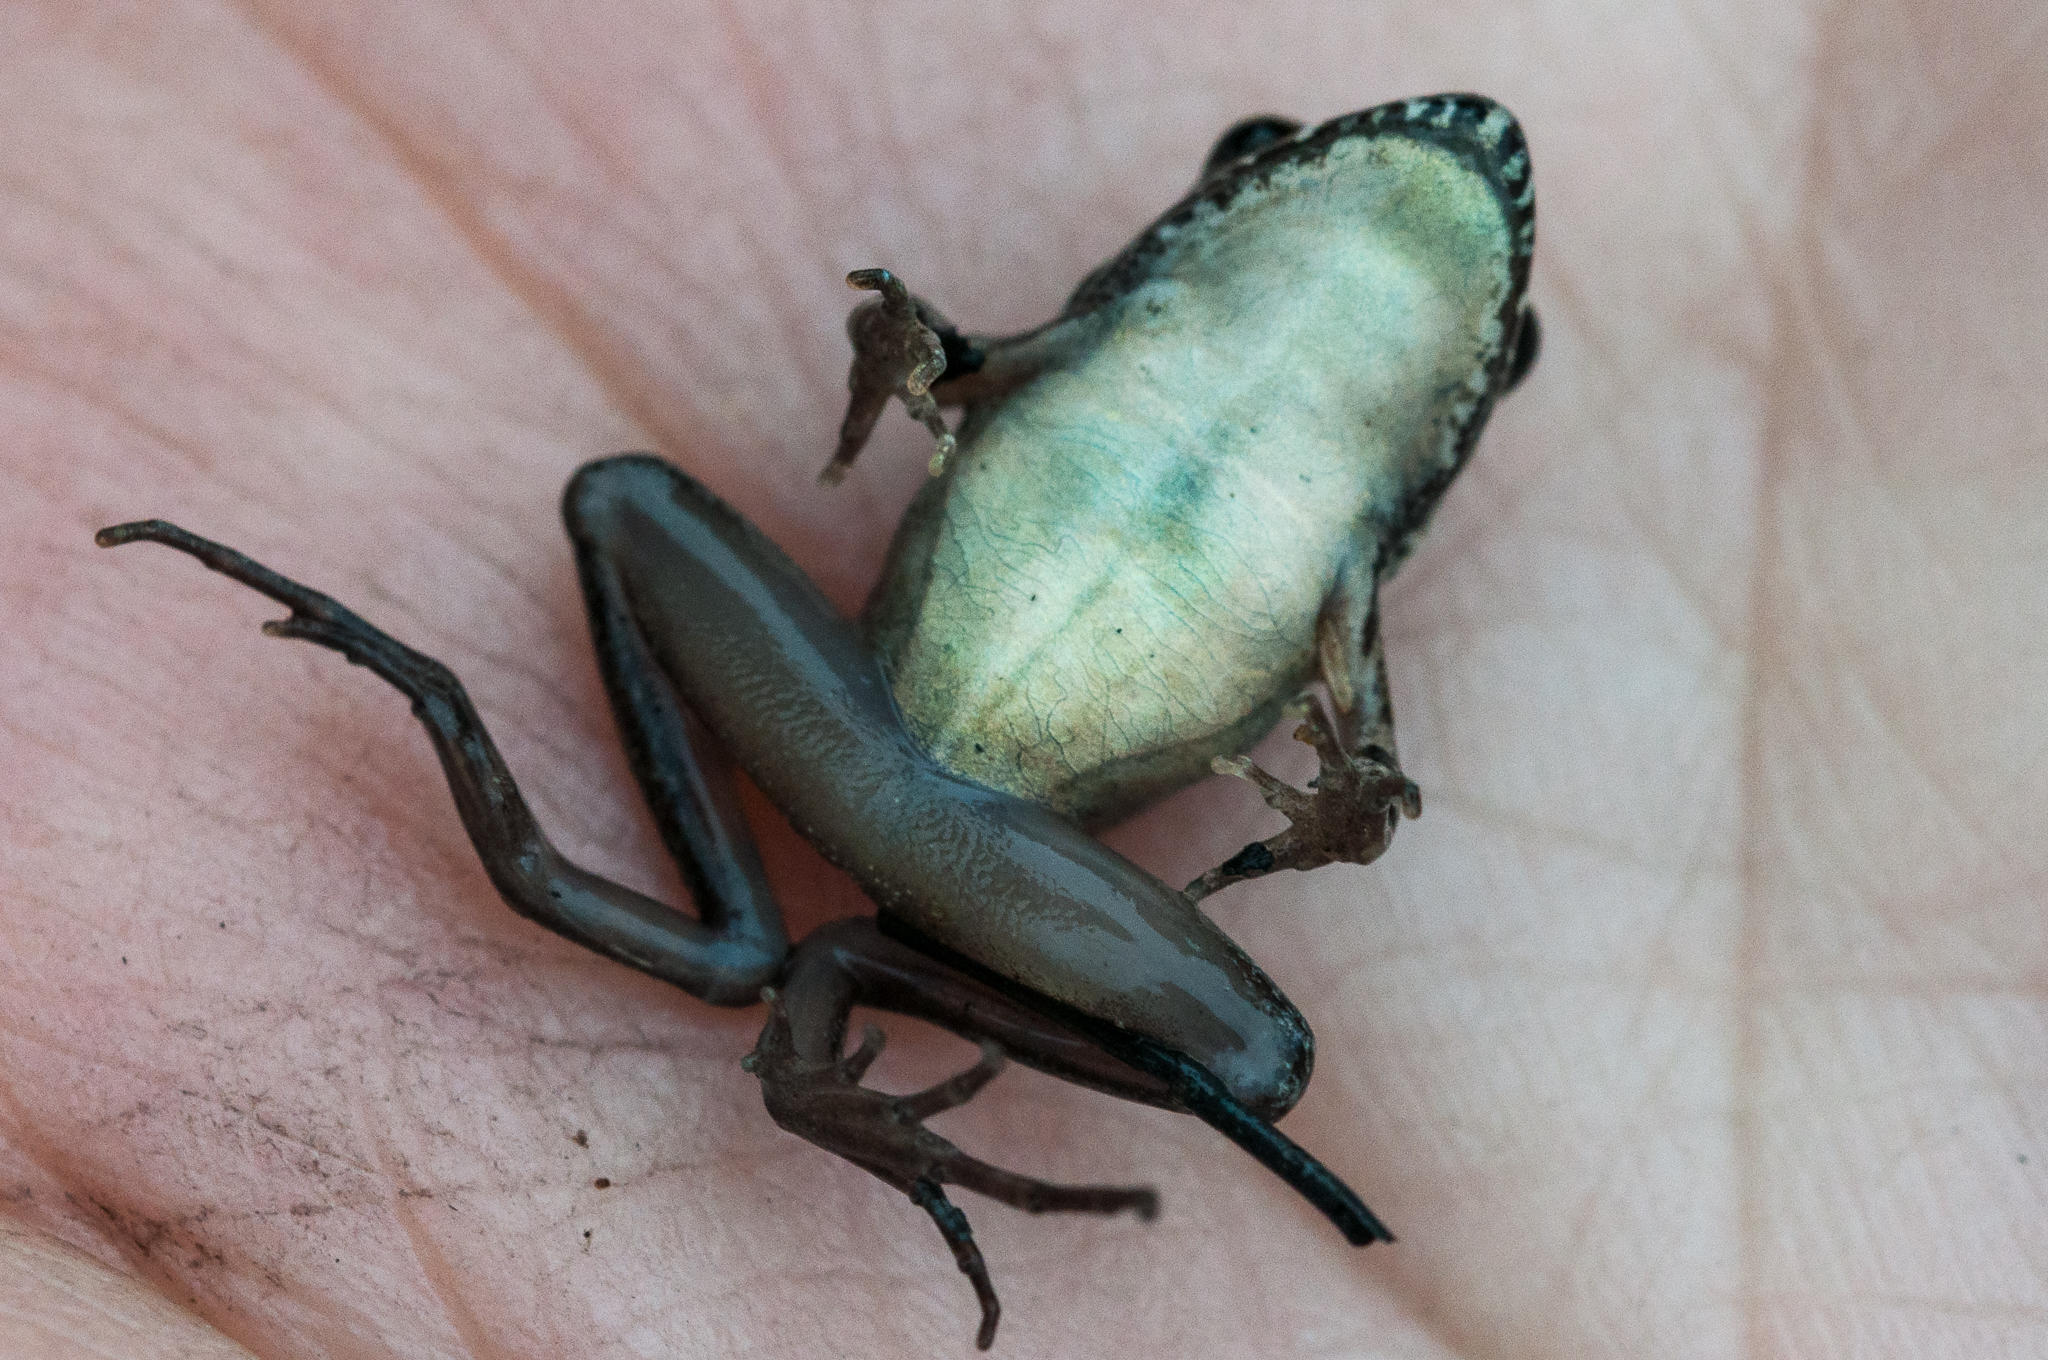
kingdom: Animalia
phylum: Chordata
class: Amphibia
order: Anura
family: Pyxicephalidae
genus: Strongylopus
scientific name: Strongylopus grayii
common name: Gray's stream frog
